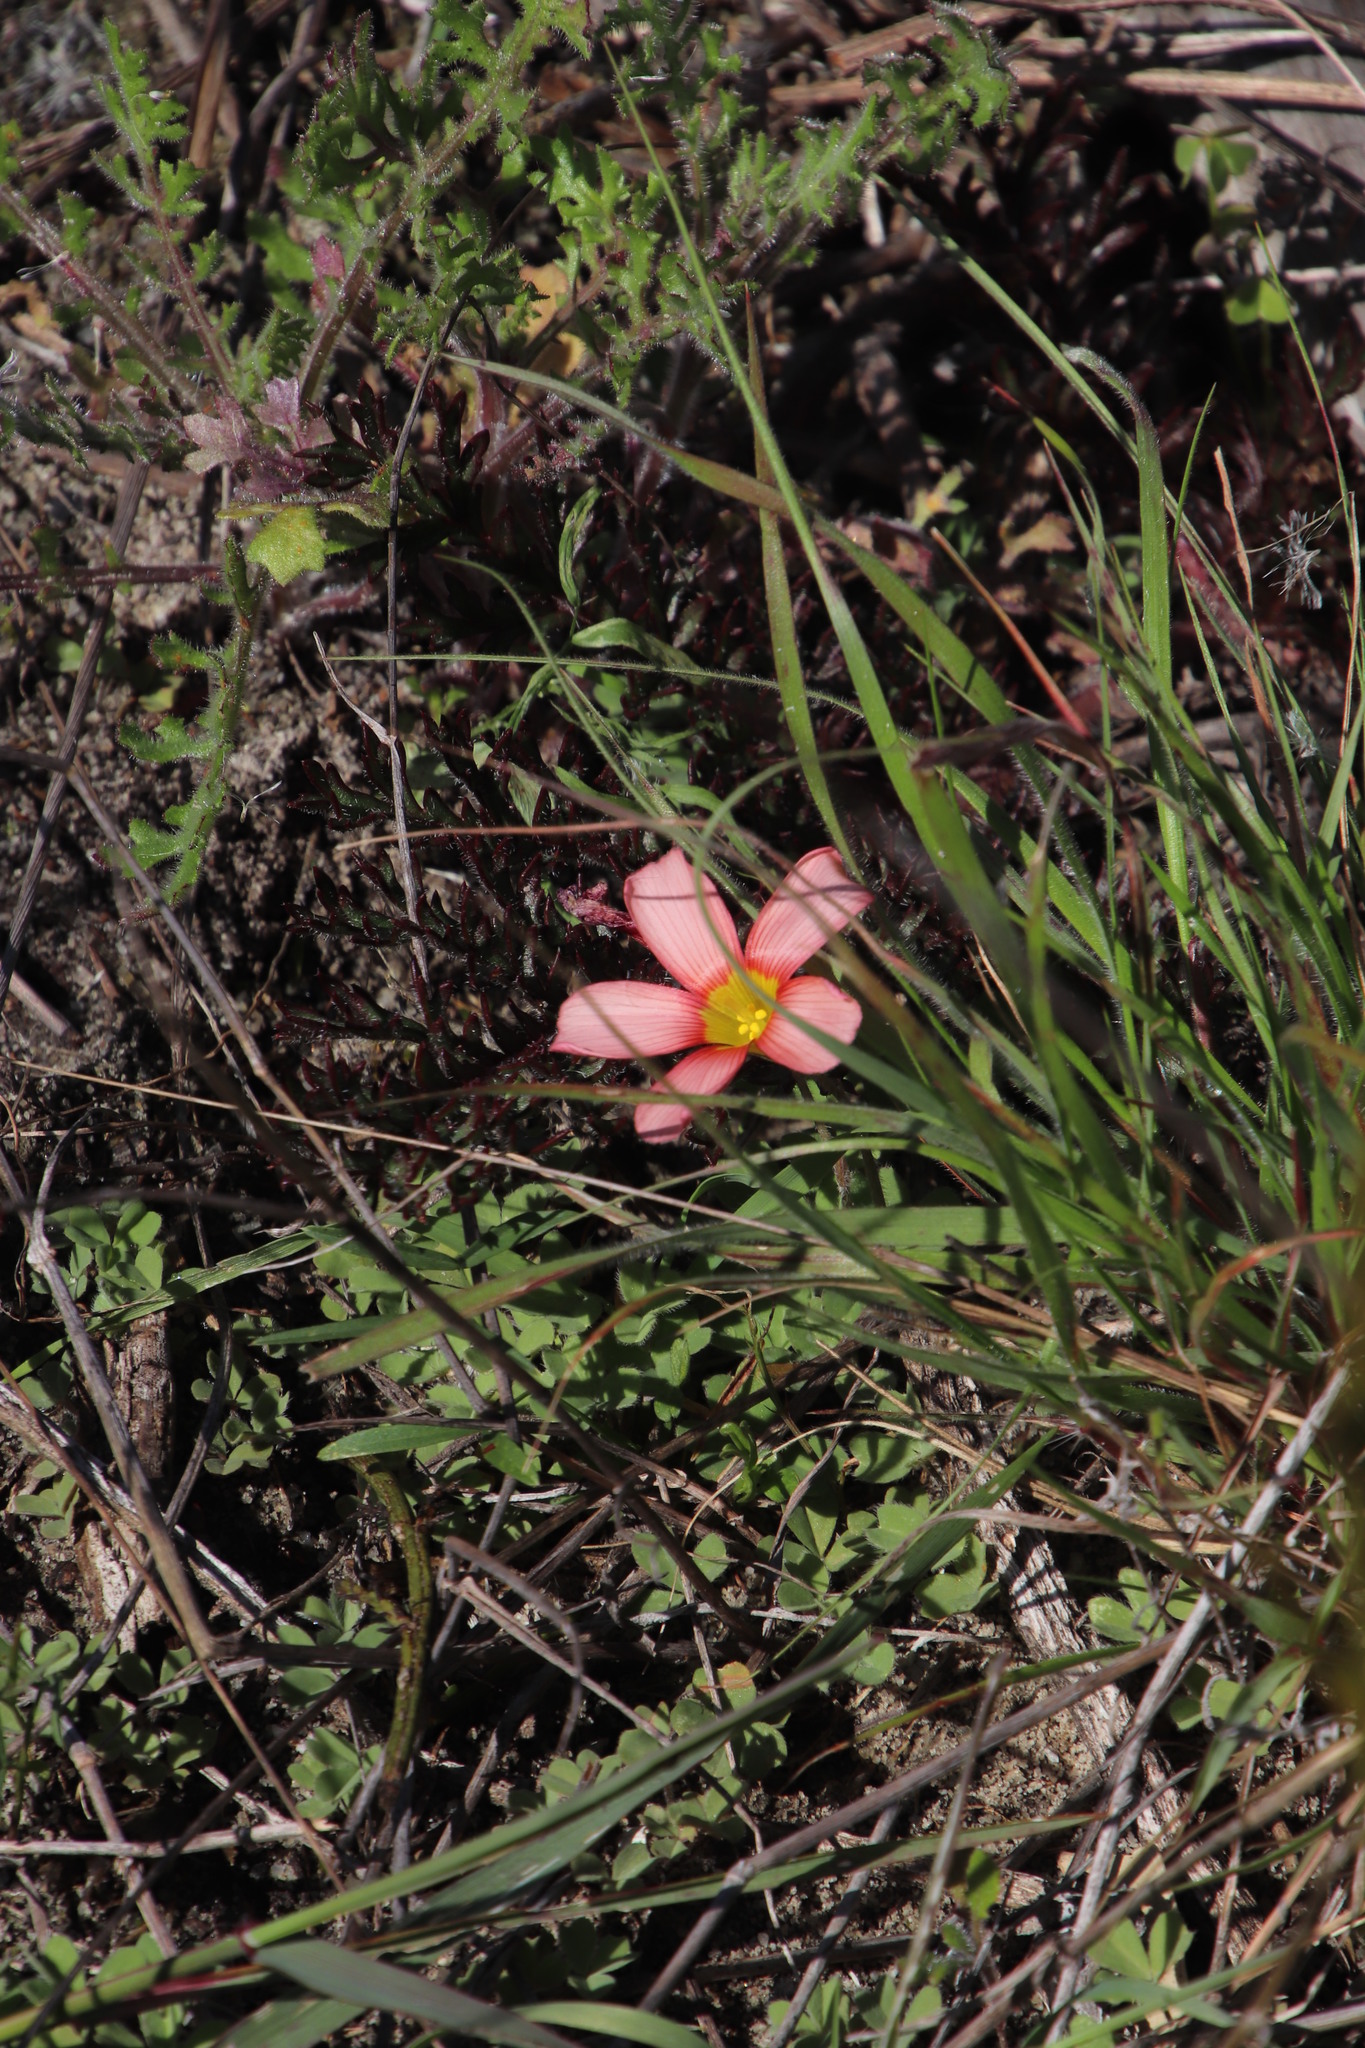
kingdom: Plantae
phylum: Tracheophyta
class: Magnoliopsida
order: Oxalidales
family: Oxalidaceae
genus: Oxalis
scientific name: Oxalis obtusa
